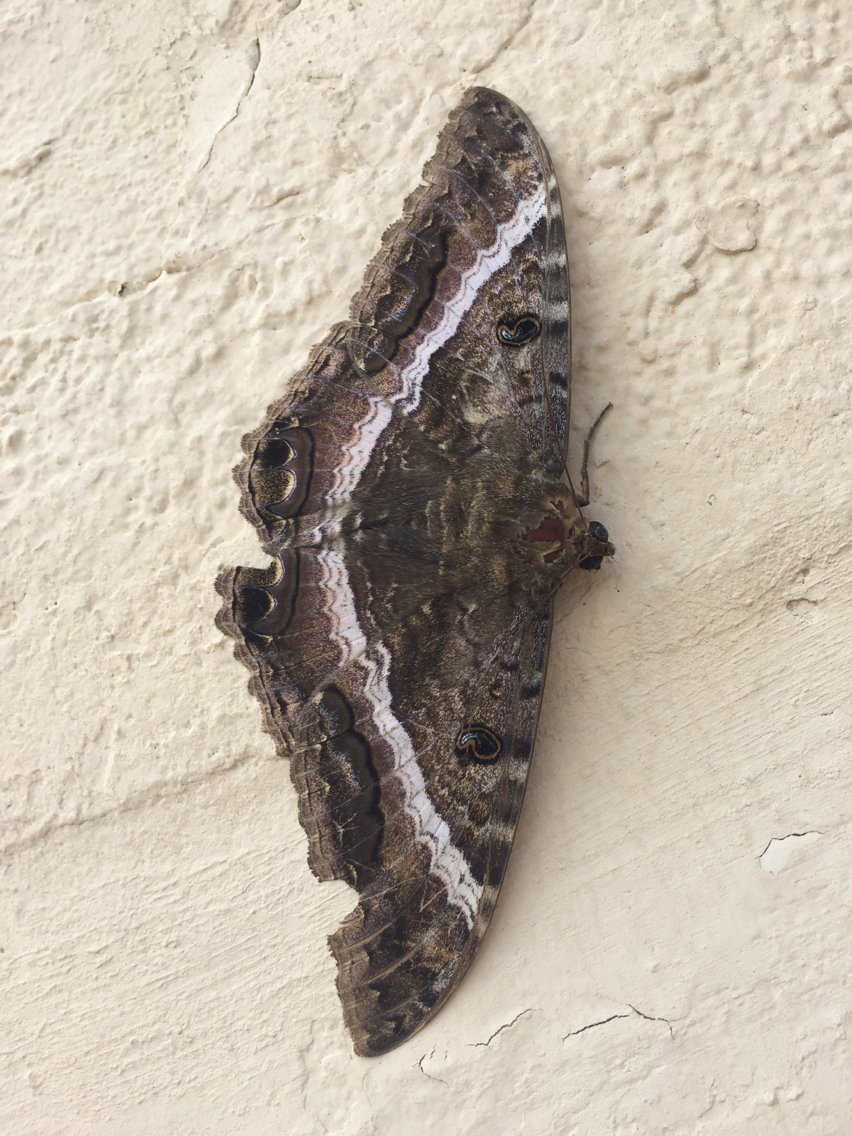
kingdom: Animalia
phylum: Arthropoda
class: Insecta
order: Lepidoptera
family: Erebidae
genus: Ascalapha
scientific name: Ascalapha odorata
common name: Black witch
